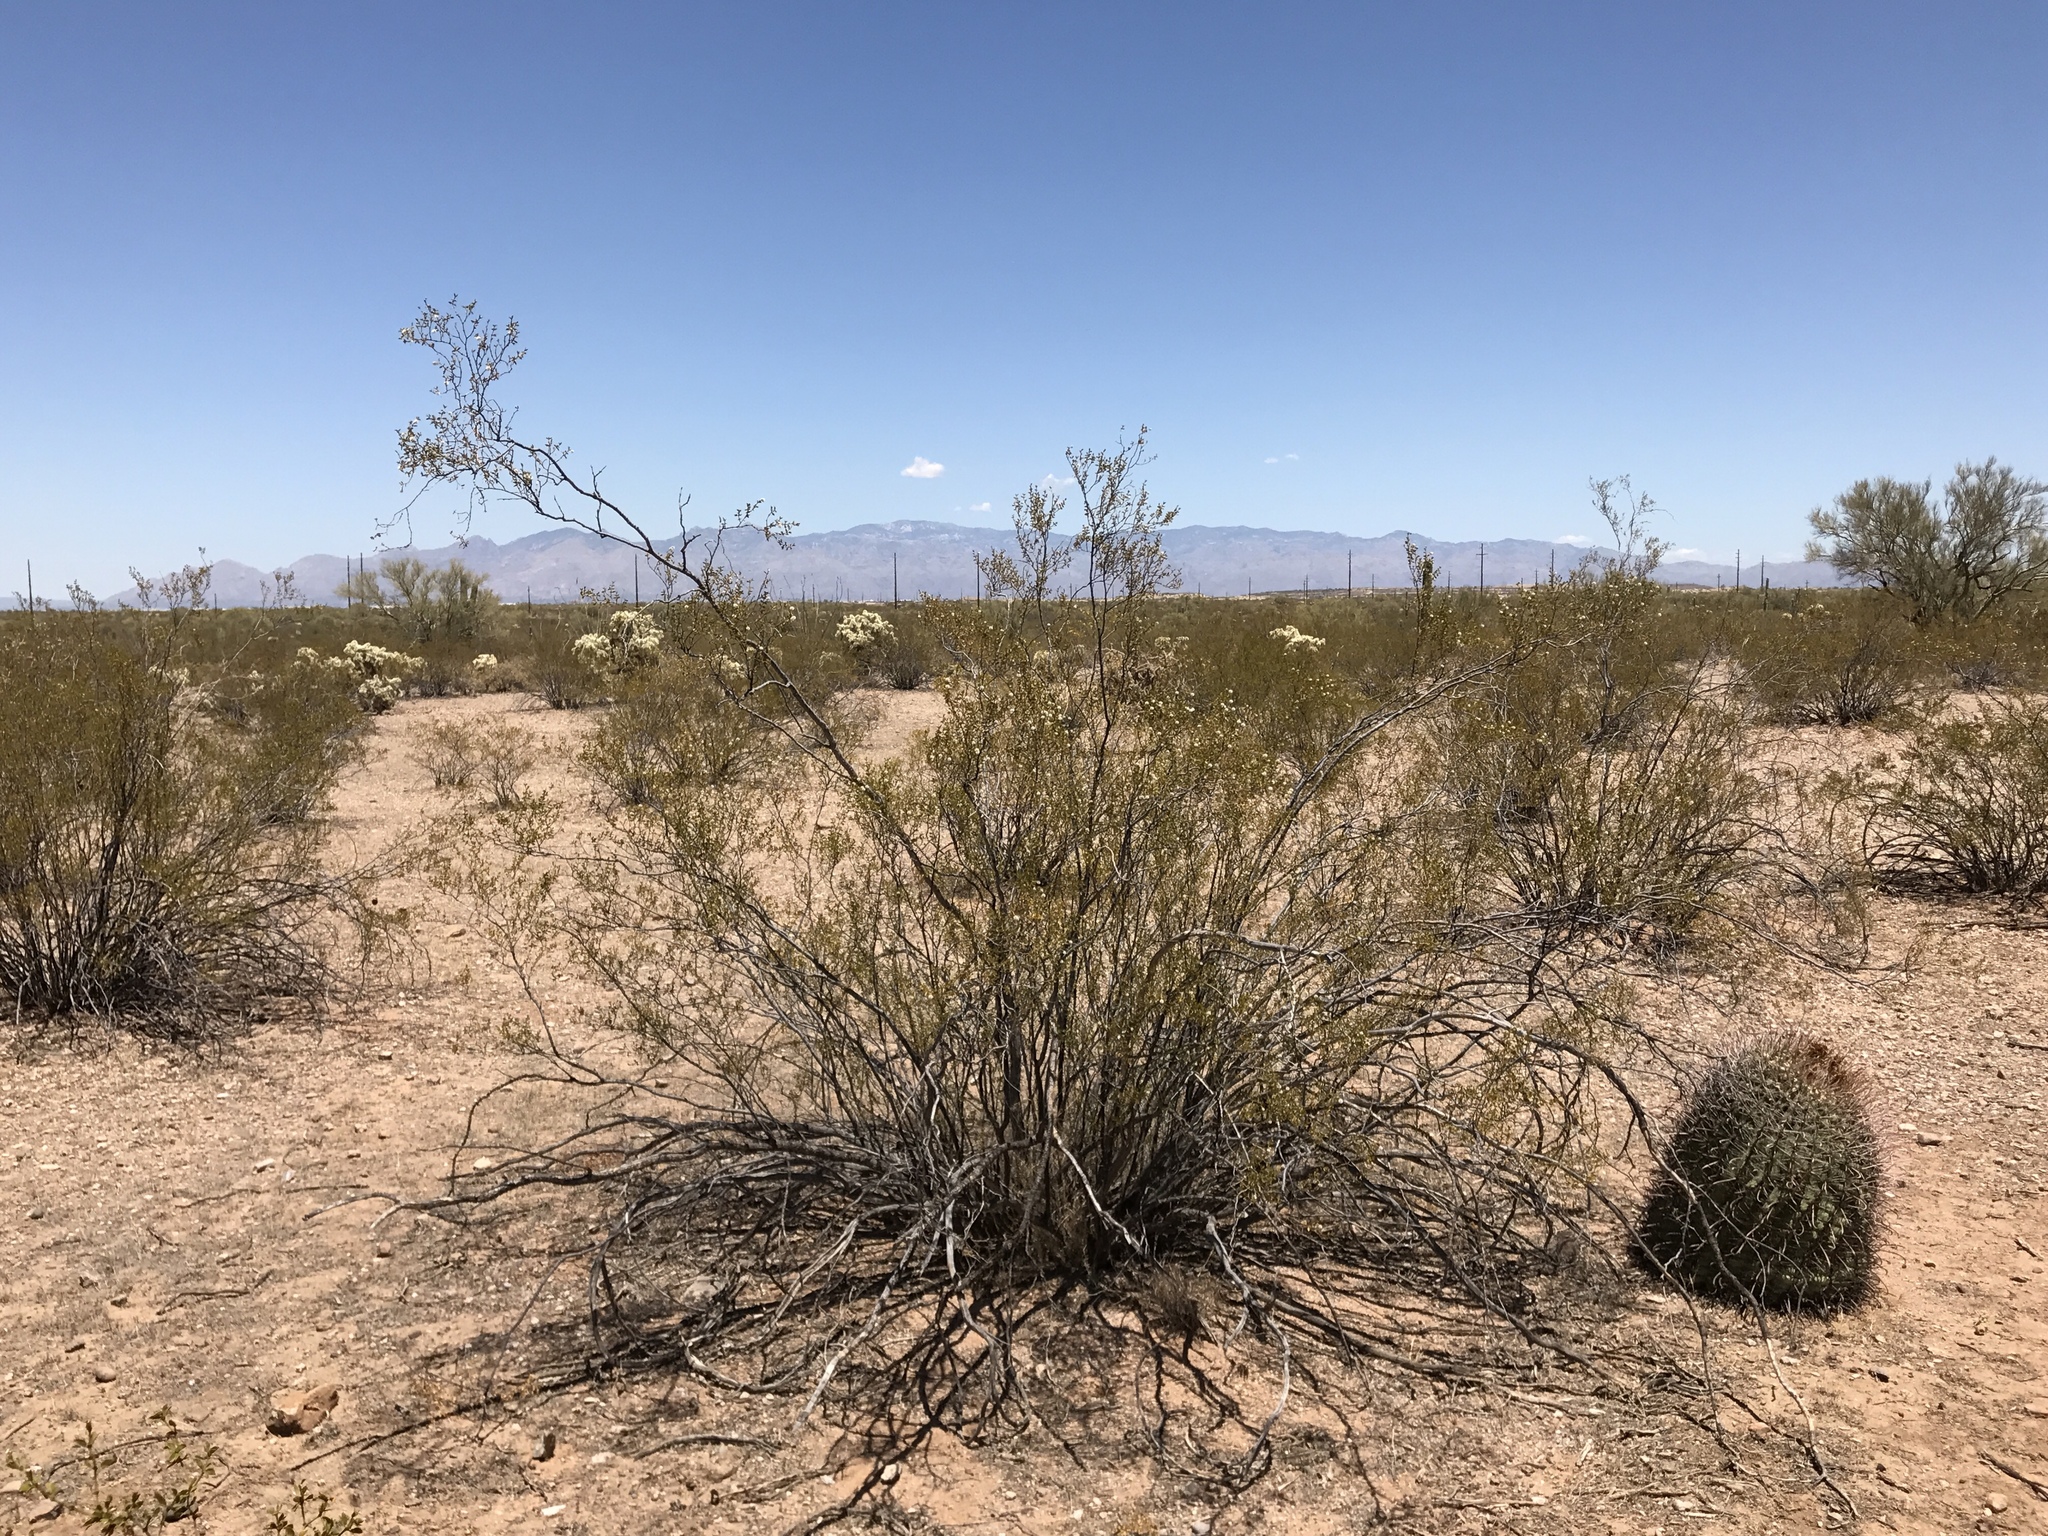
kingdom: Plantae
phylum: Tracheophyta
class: Magnoliopsida
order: Zygophyllales
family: Zygophyllaceae
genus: Larrea
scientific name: Larrea tridentata
